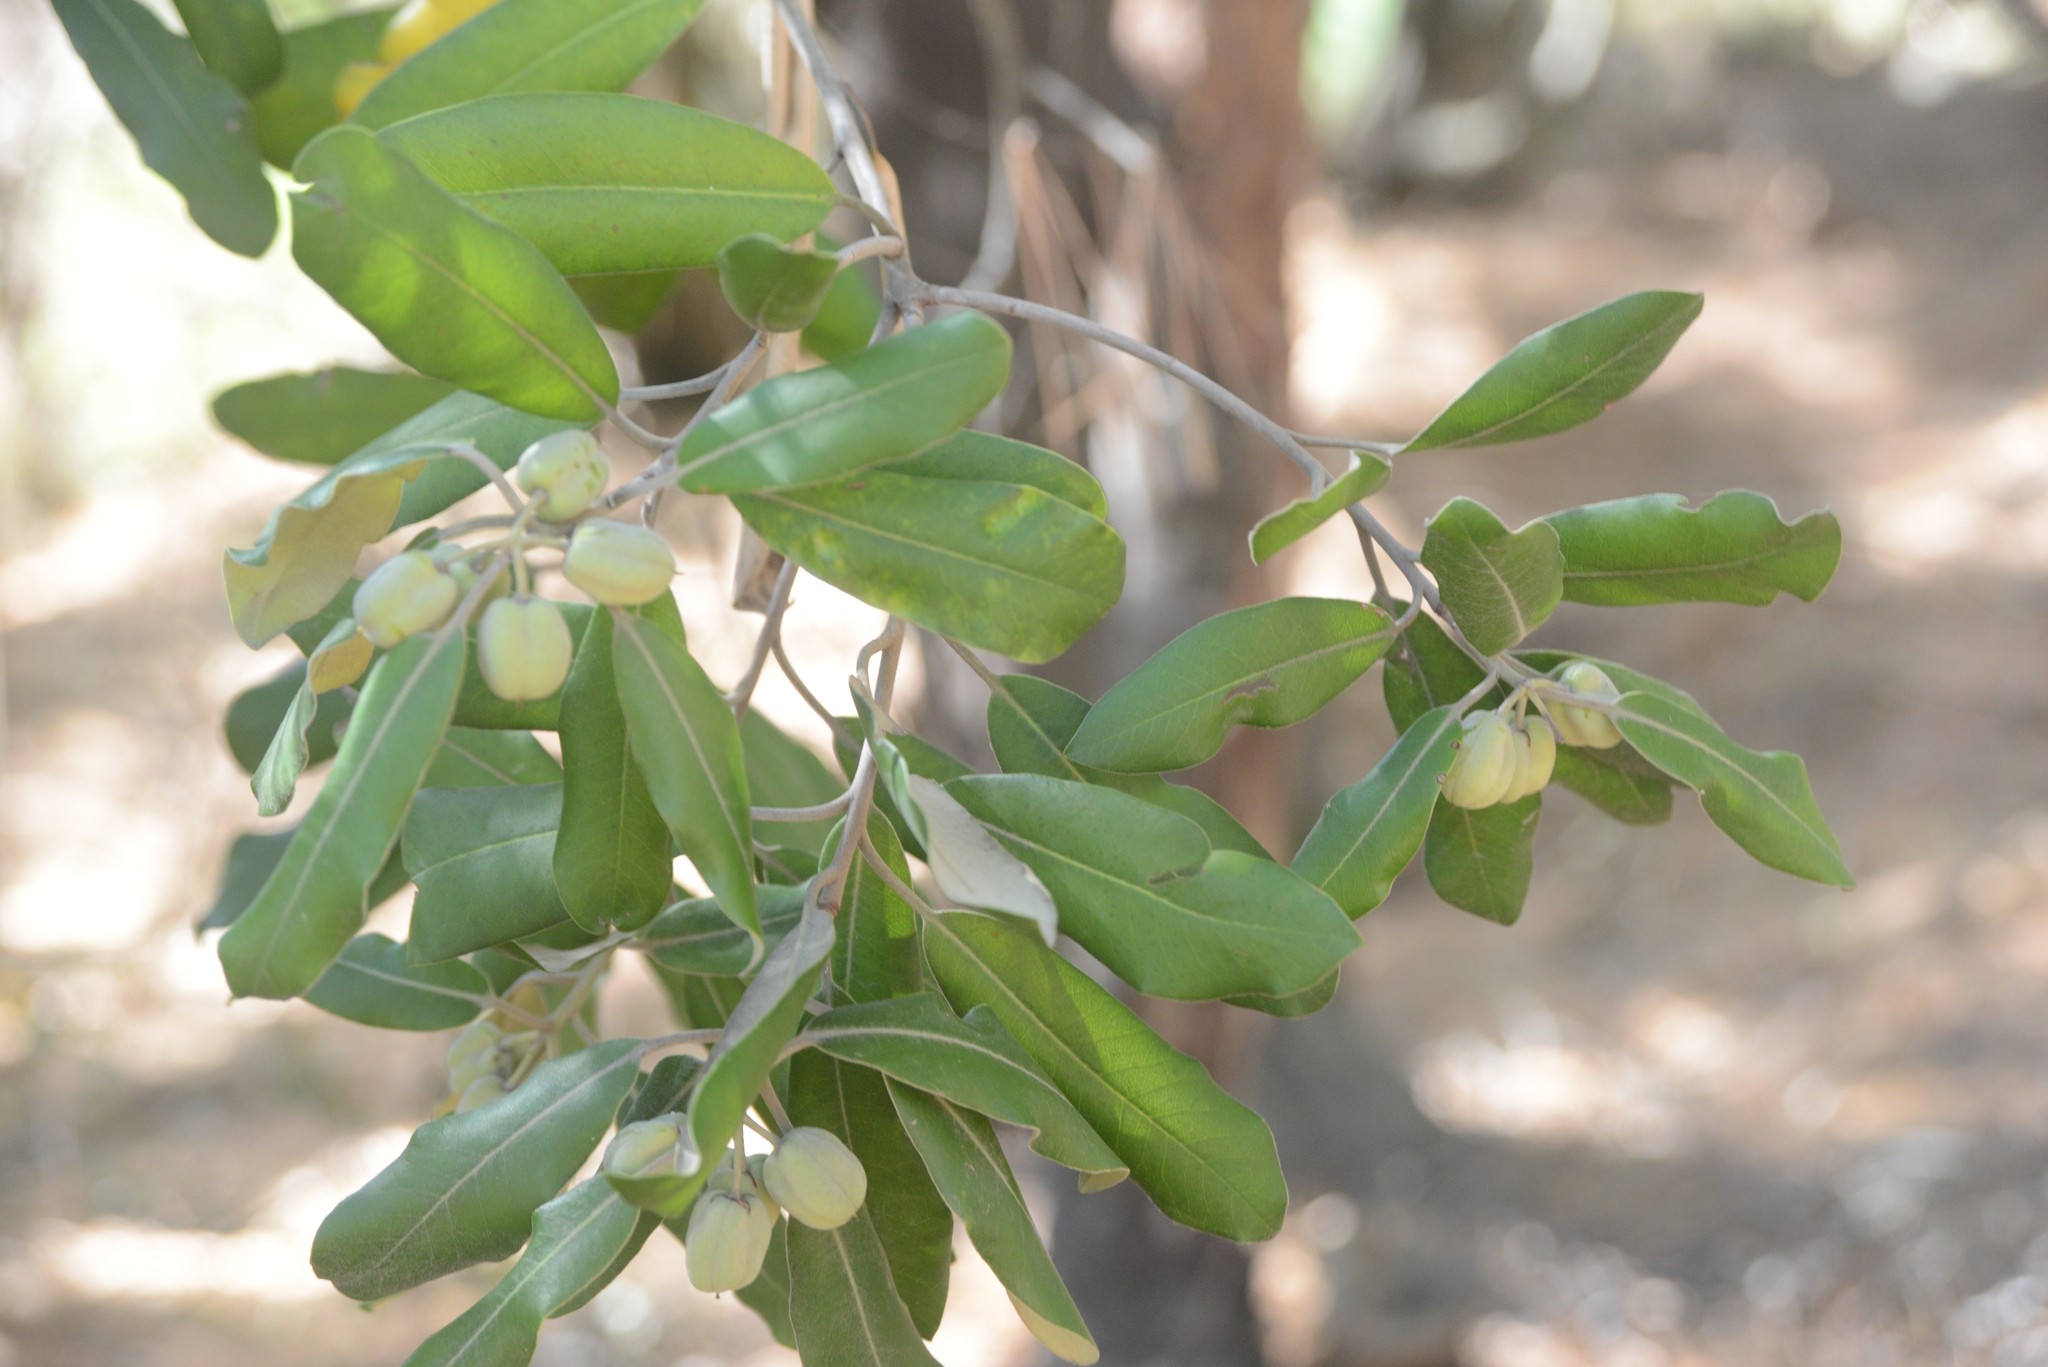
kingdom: Plantae
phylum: Tracheophyta
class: Magnoliopsida
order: Apiales
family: Pittosporaceae
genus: Pittosporum
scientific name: Pittosporum ralphii
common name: Ralph's desertwillow
